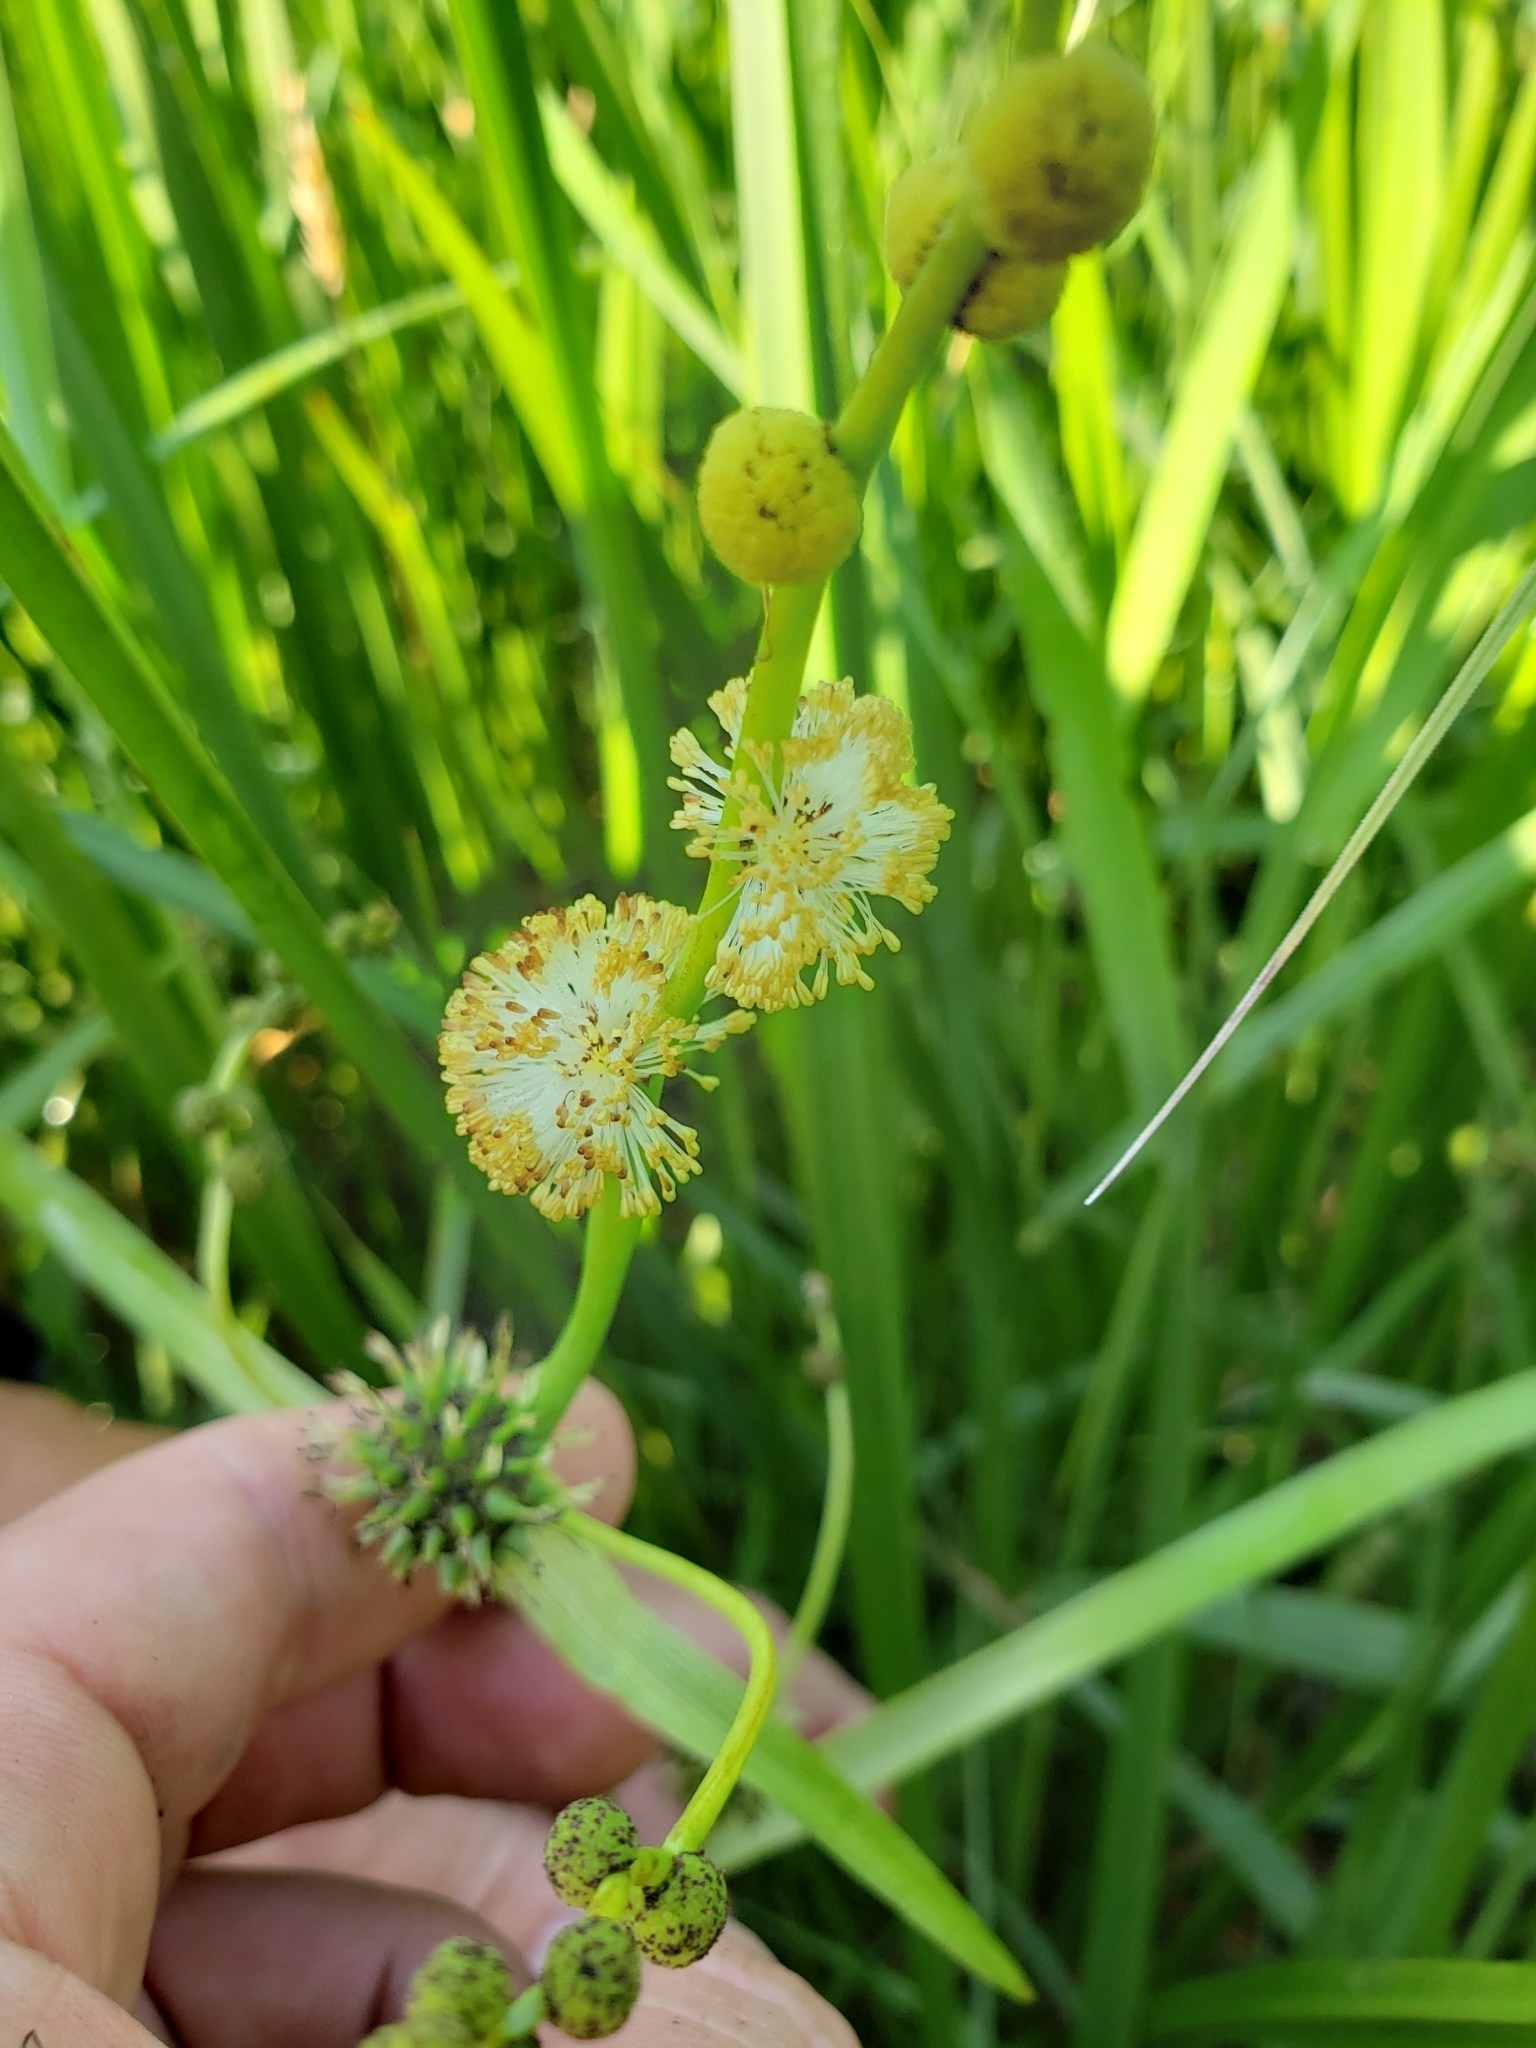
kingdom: Plantae
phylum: Tracheophyta
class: Liliopsida
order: Poales
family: Typhaceae
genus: Sparganium
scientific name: Sparganium eurycarpum
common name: Broad-fruited burreed
